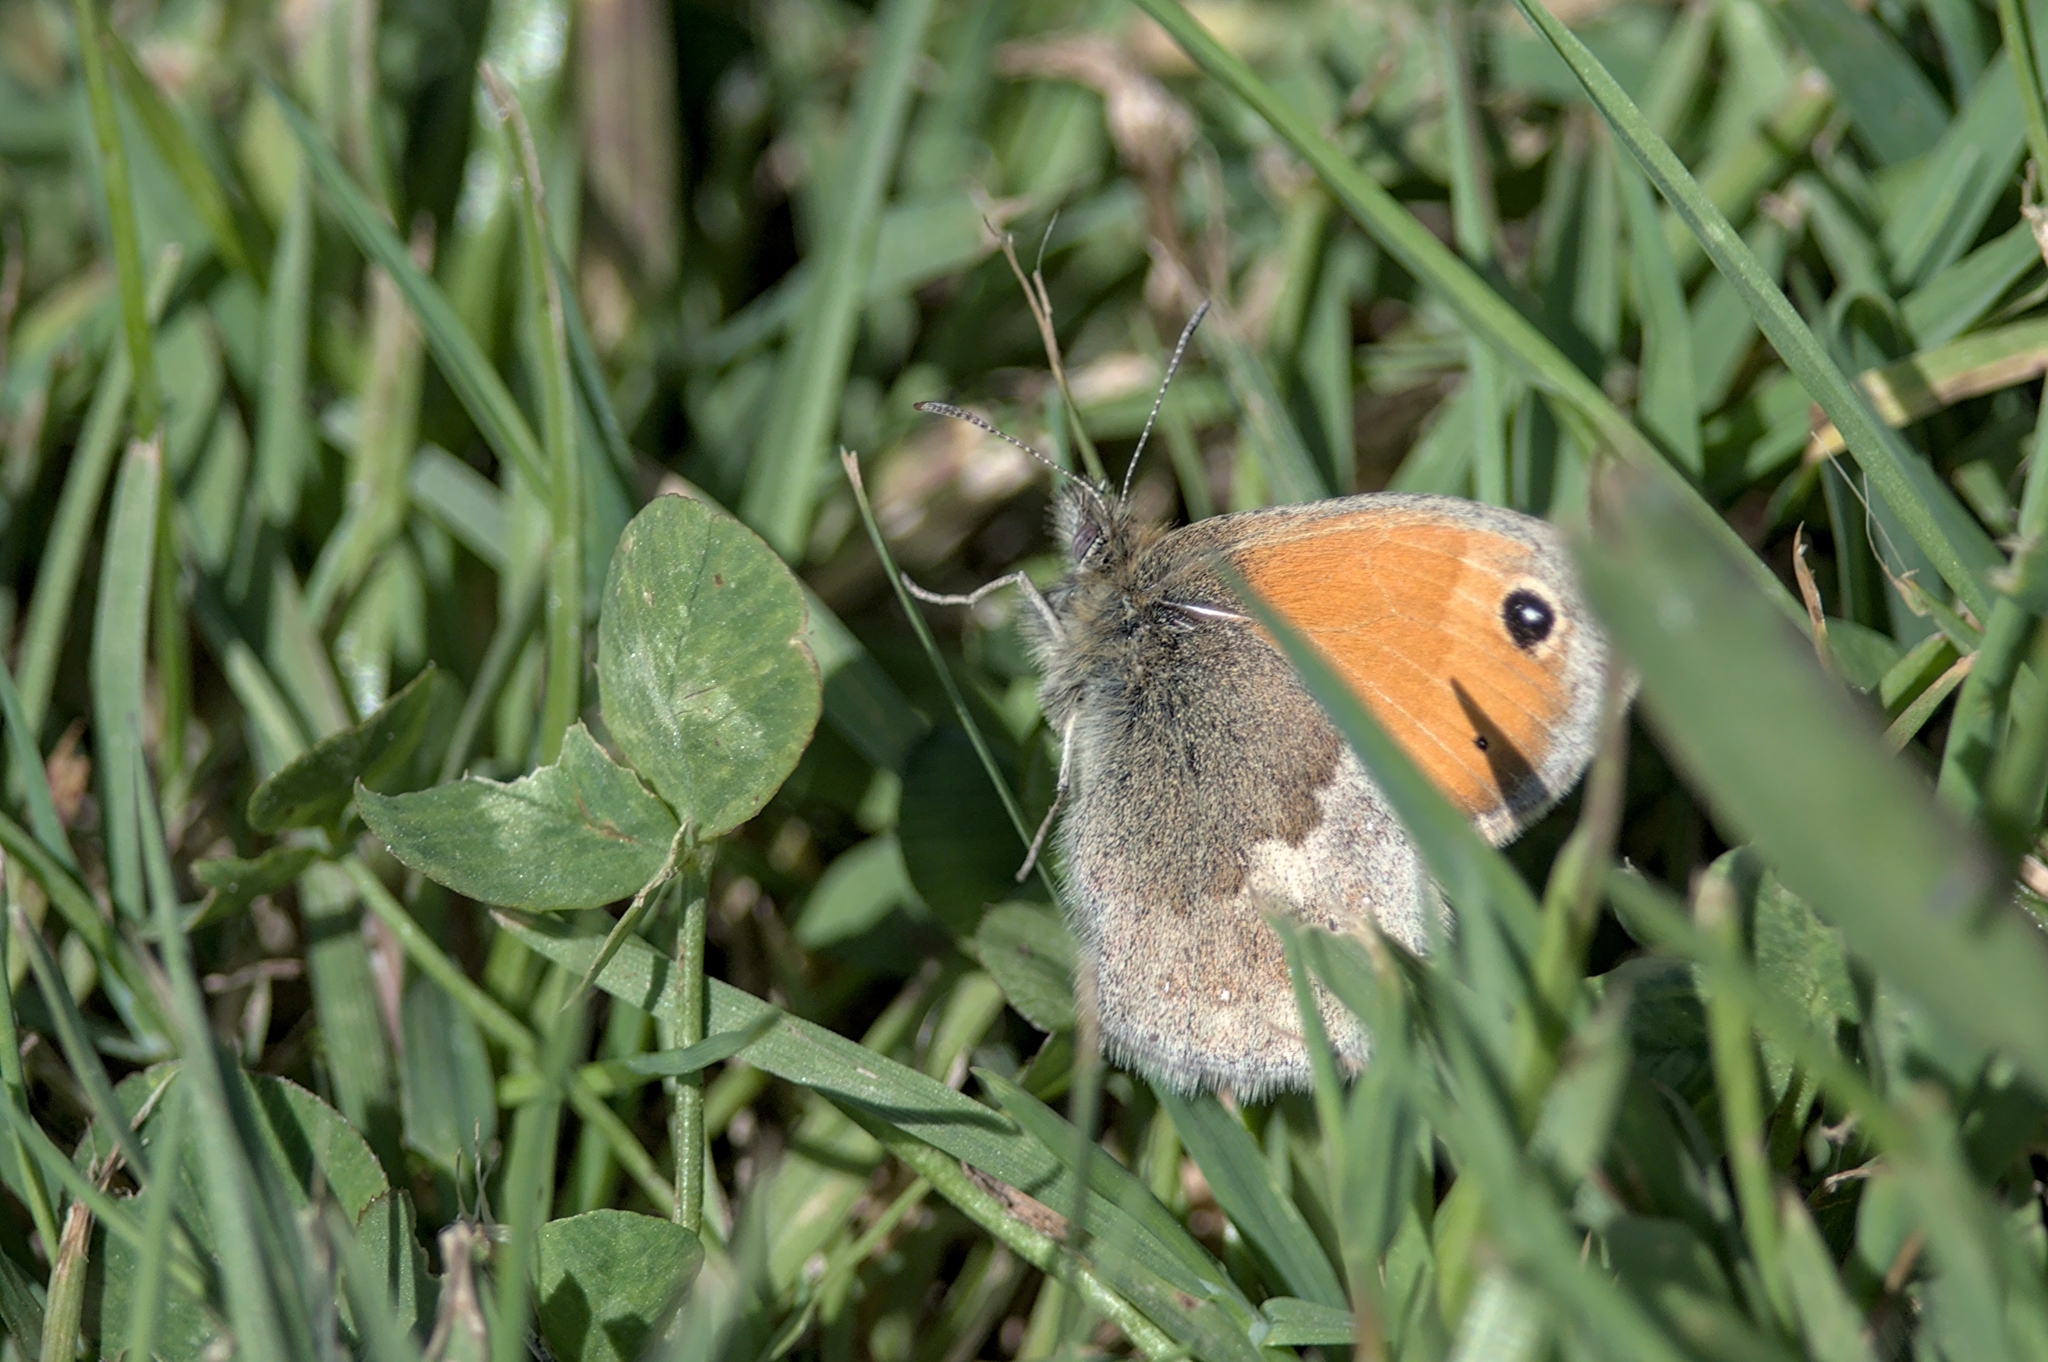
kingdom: Animalia
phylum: Arthropoda
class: Insecta
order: Lepidoptera
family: Nymphalidae
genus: Coenonympha
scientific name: Coenonympha pamphilus
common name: Small heath
